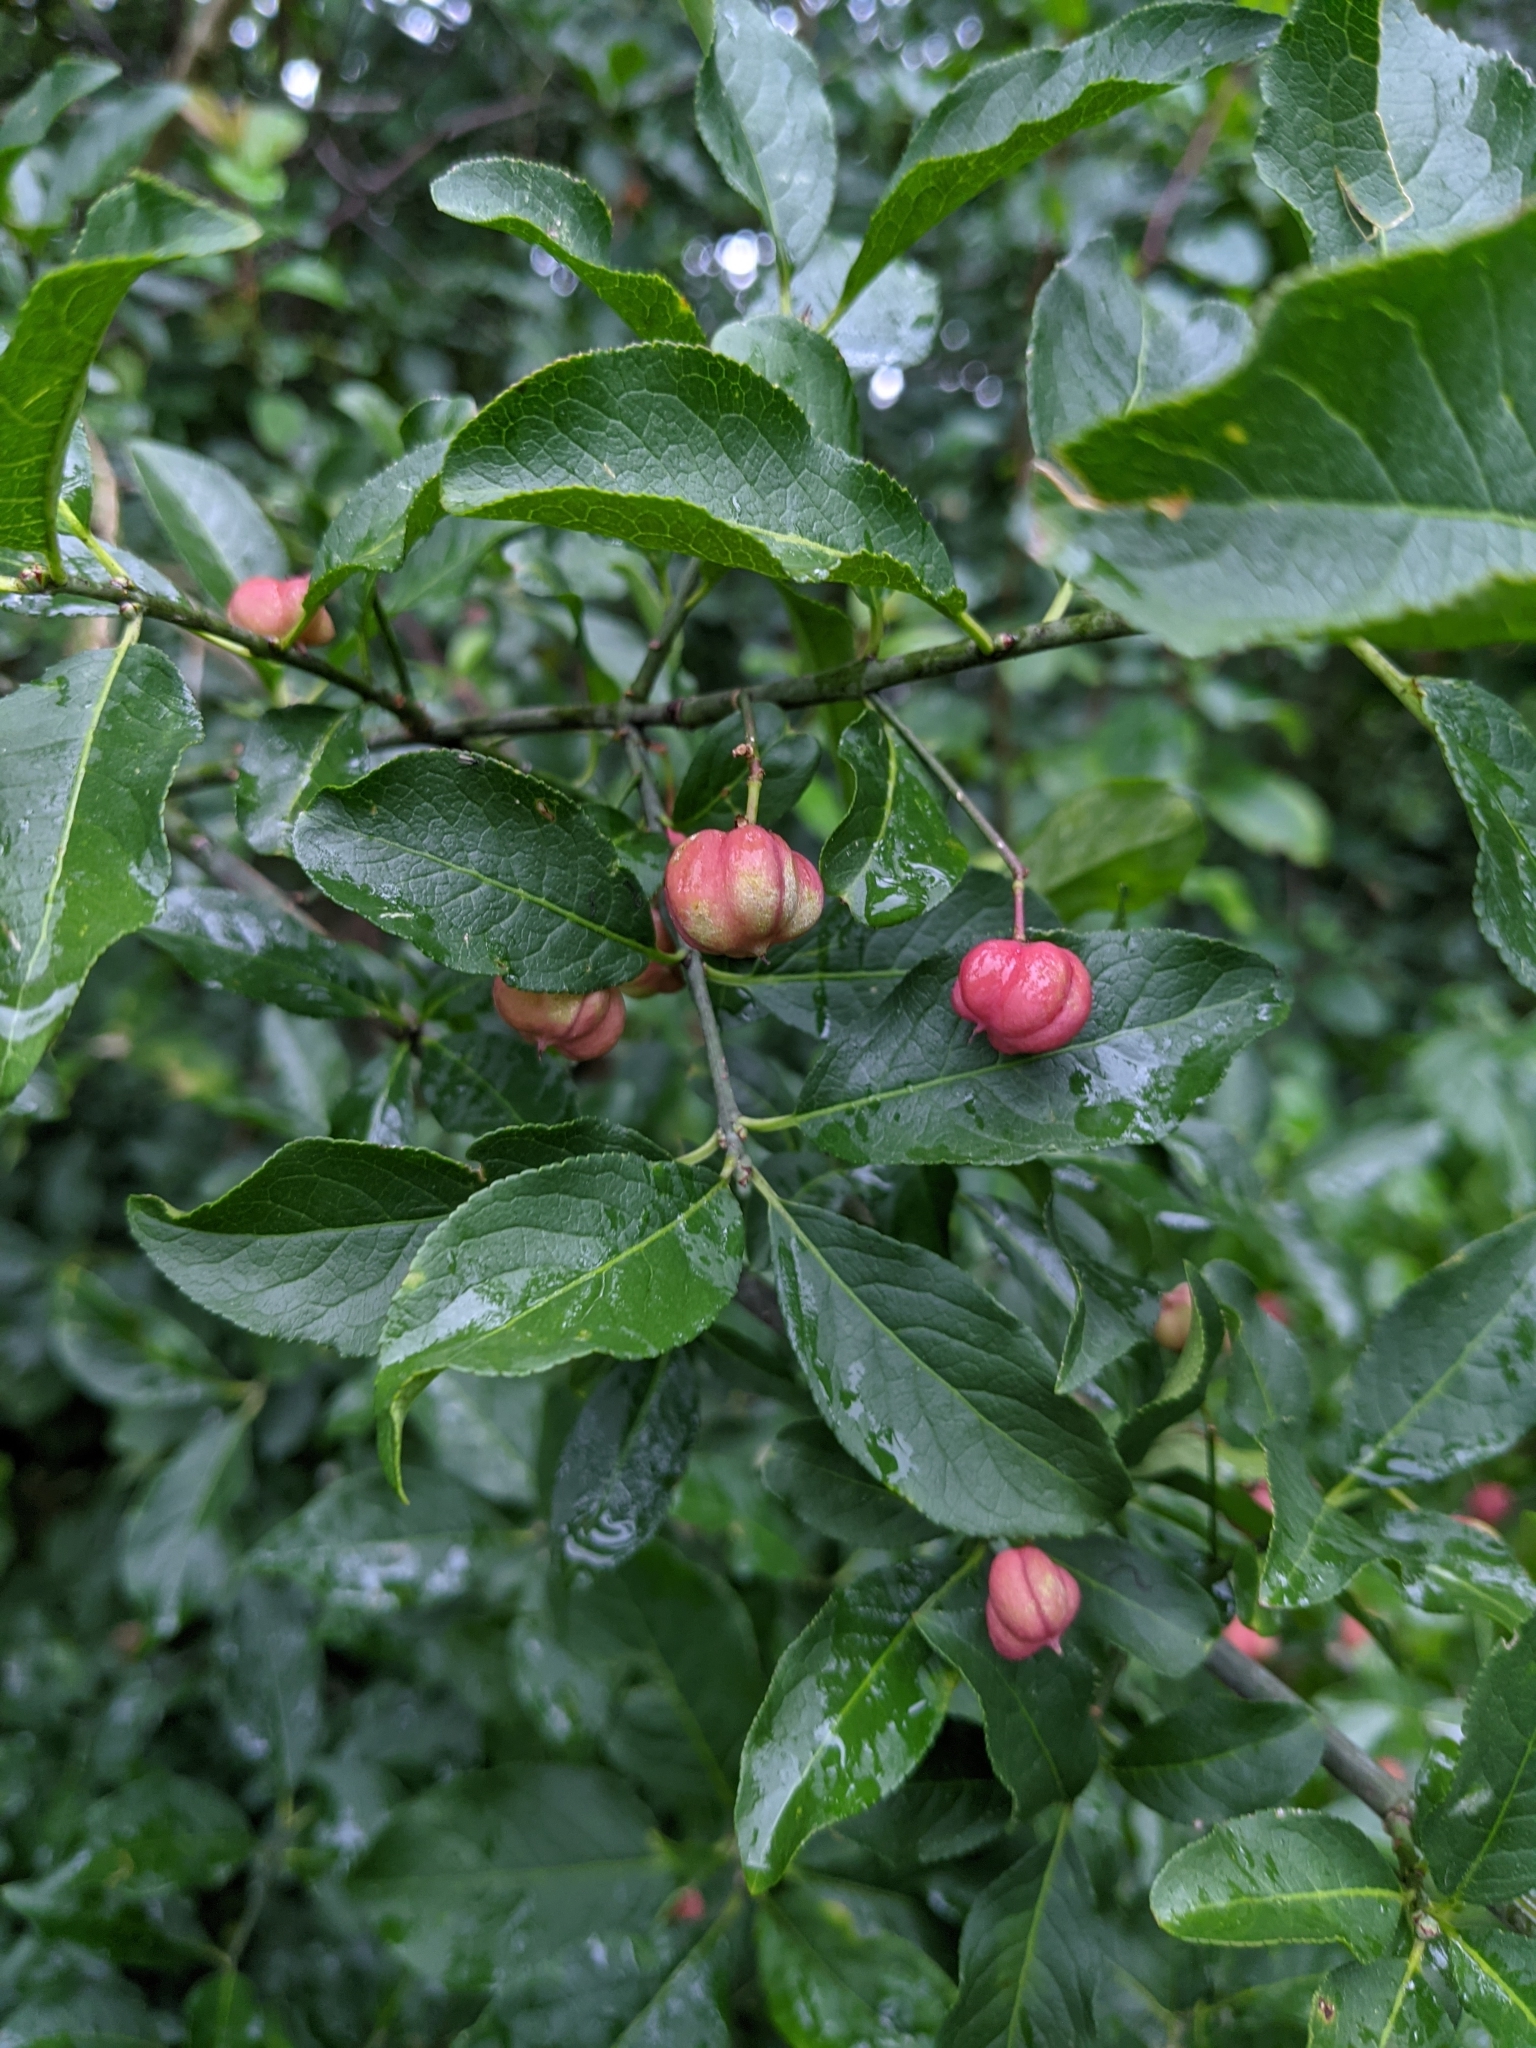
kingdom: Plantae
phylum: Tracheophyta
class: Magnoliopsida
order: Celastrales
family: Celastraceae
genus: Euonymus
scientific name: Euonymus europaeus
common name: Spindle
